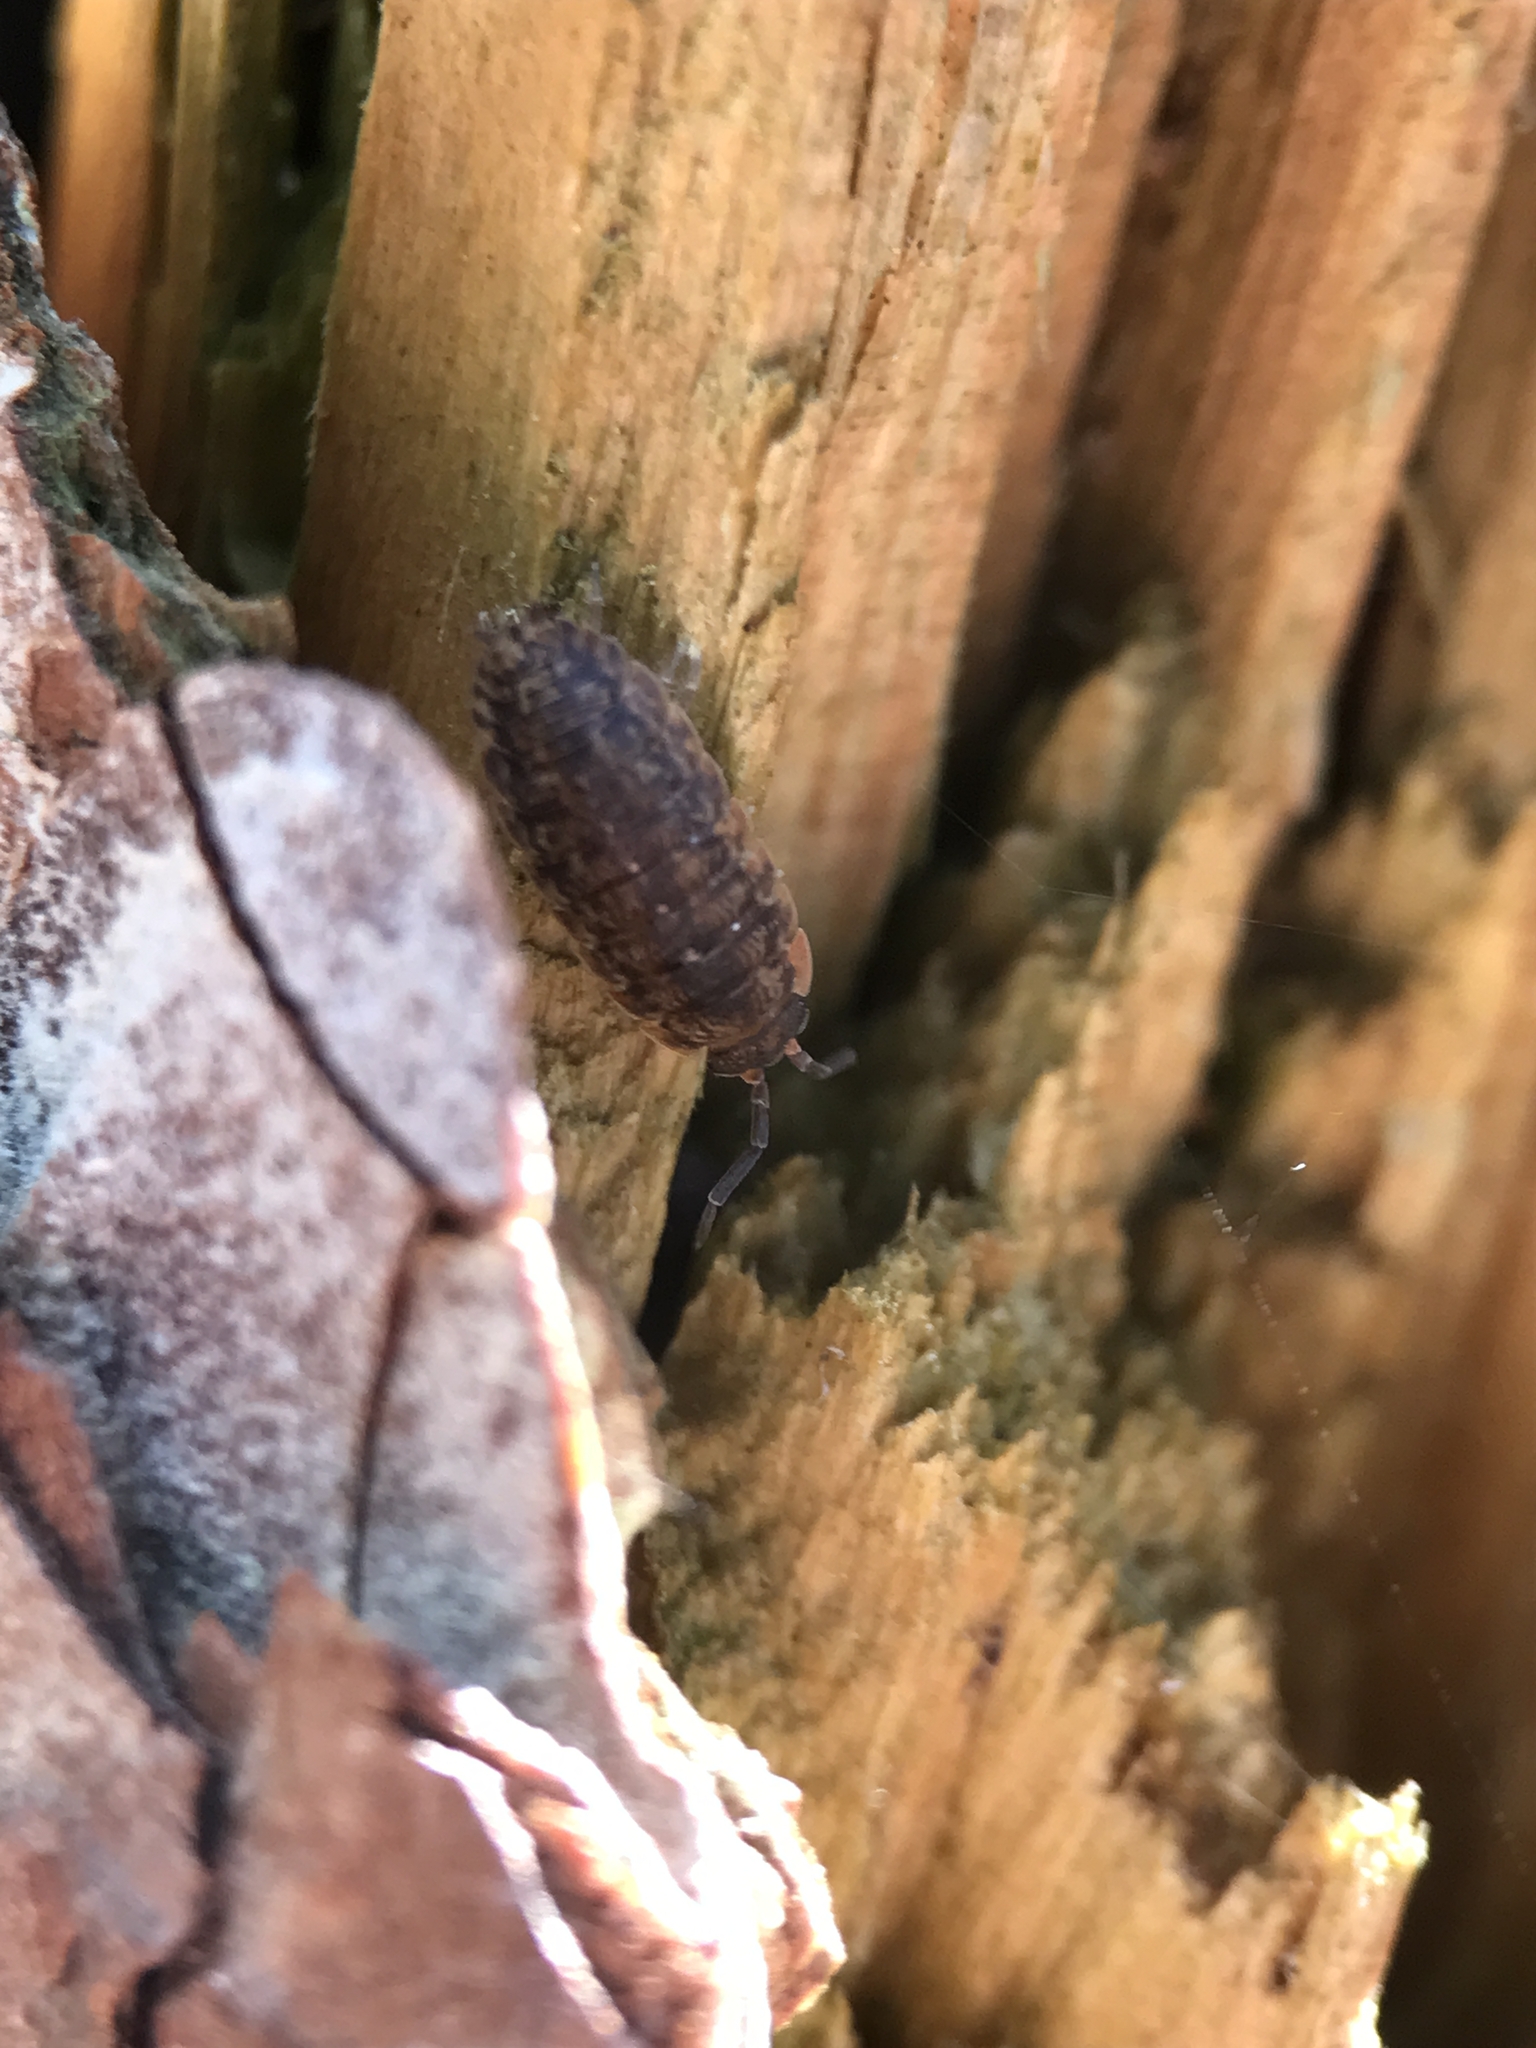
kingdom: Animalia
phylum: Arthropoda
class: Malacostraca
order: Isopoda
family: Porcellionidae
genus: Porcellio
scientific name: Porcellio scaber
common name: Common rough woodlouse
